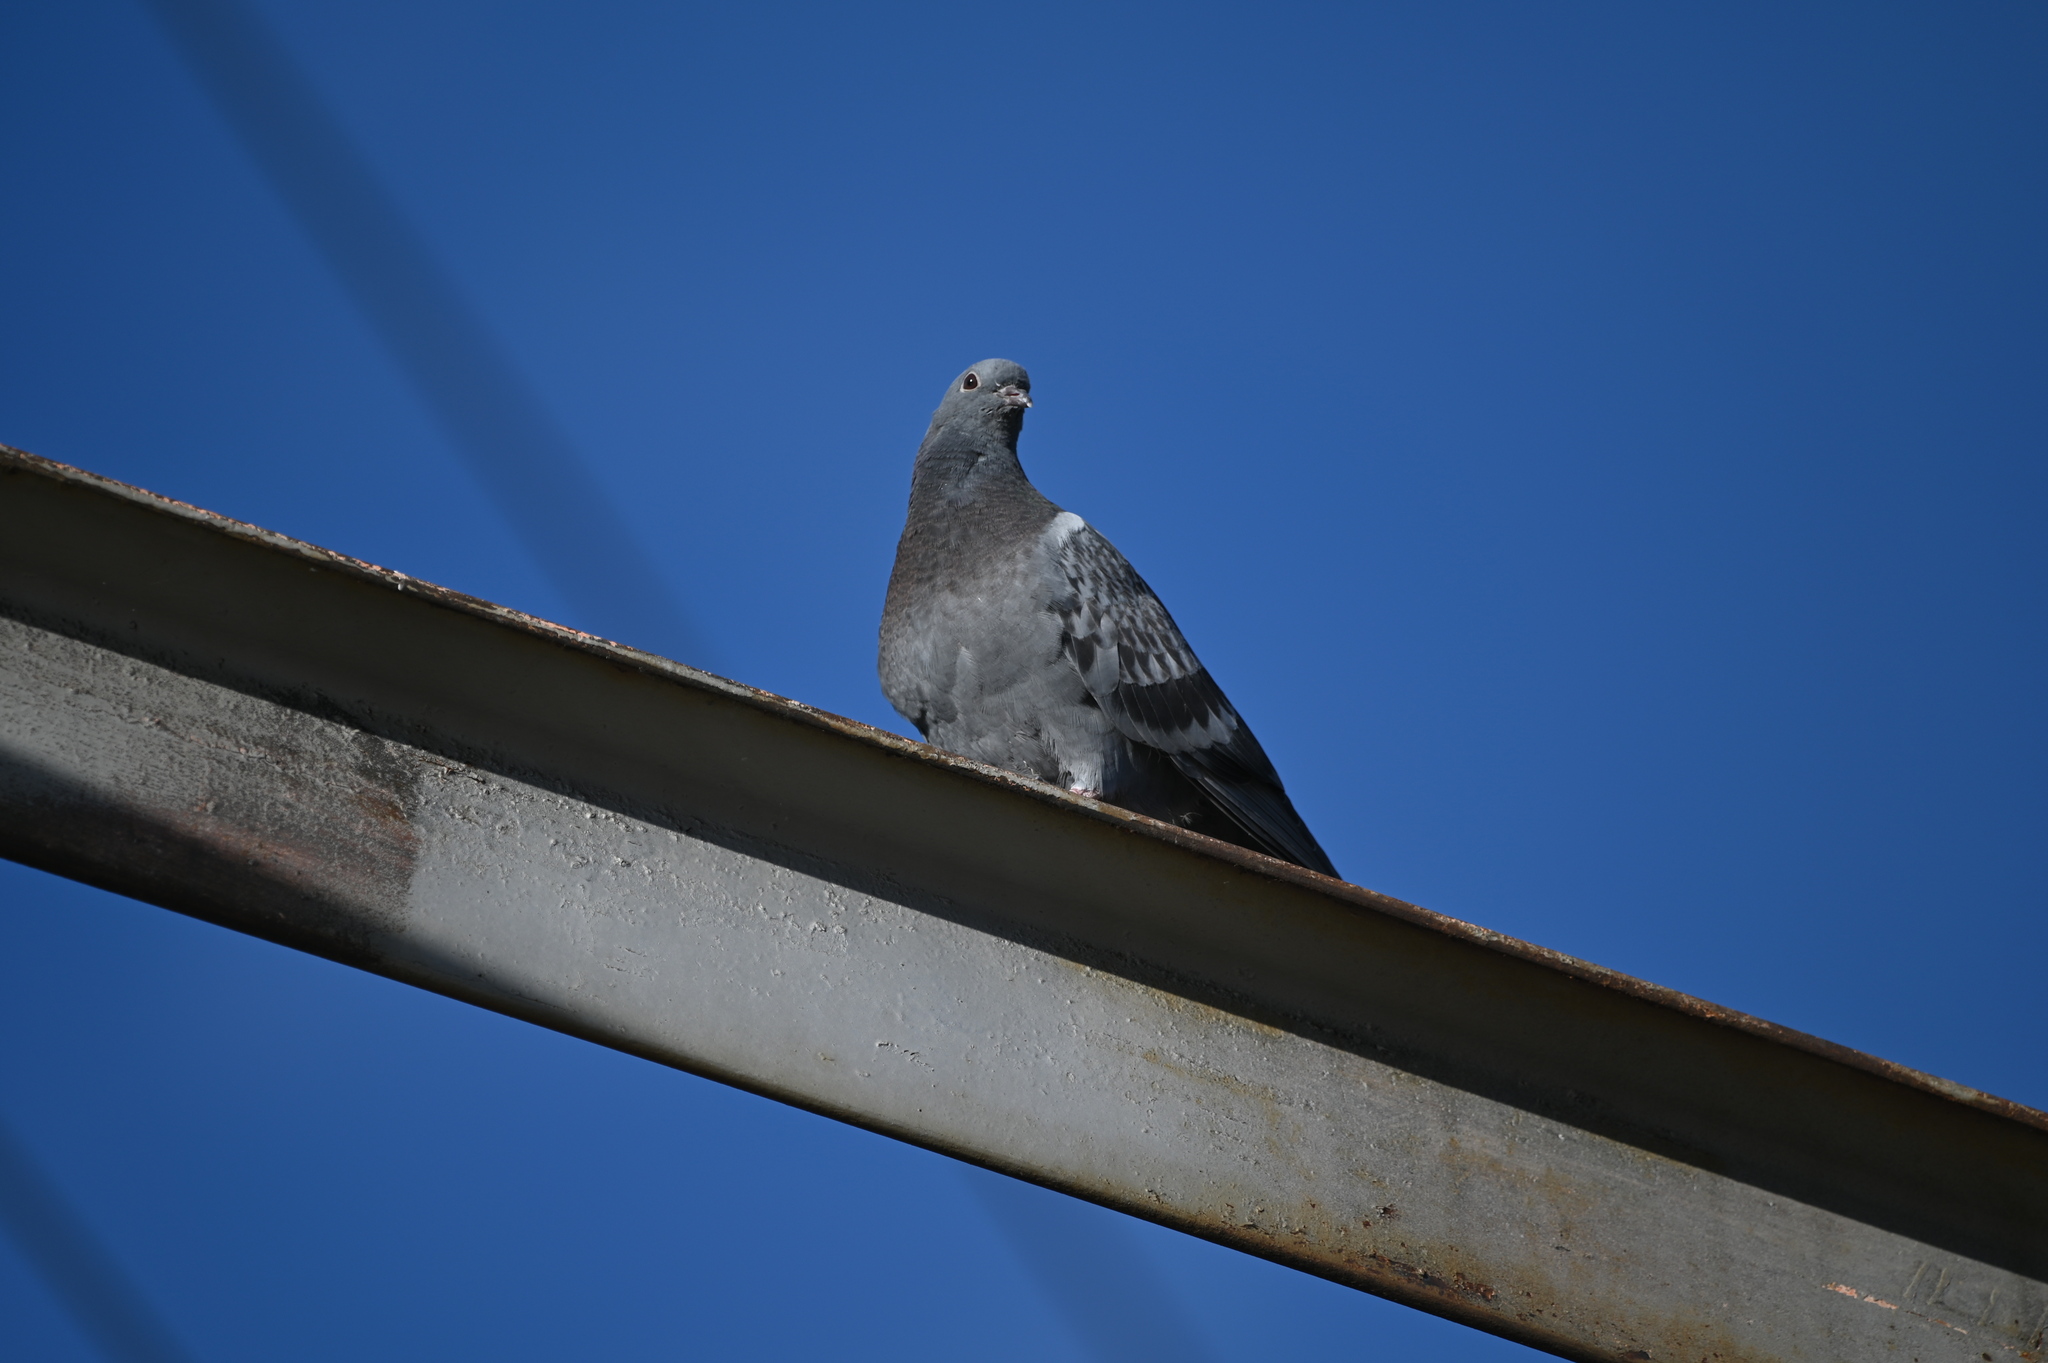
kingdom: Animalia
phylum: Chordata
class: Aves
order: Columbiformes
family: Columbidae
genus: Columba
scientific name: Columba livia
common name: Rock pigeon
